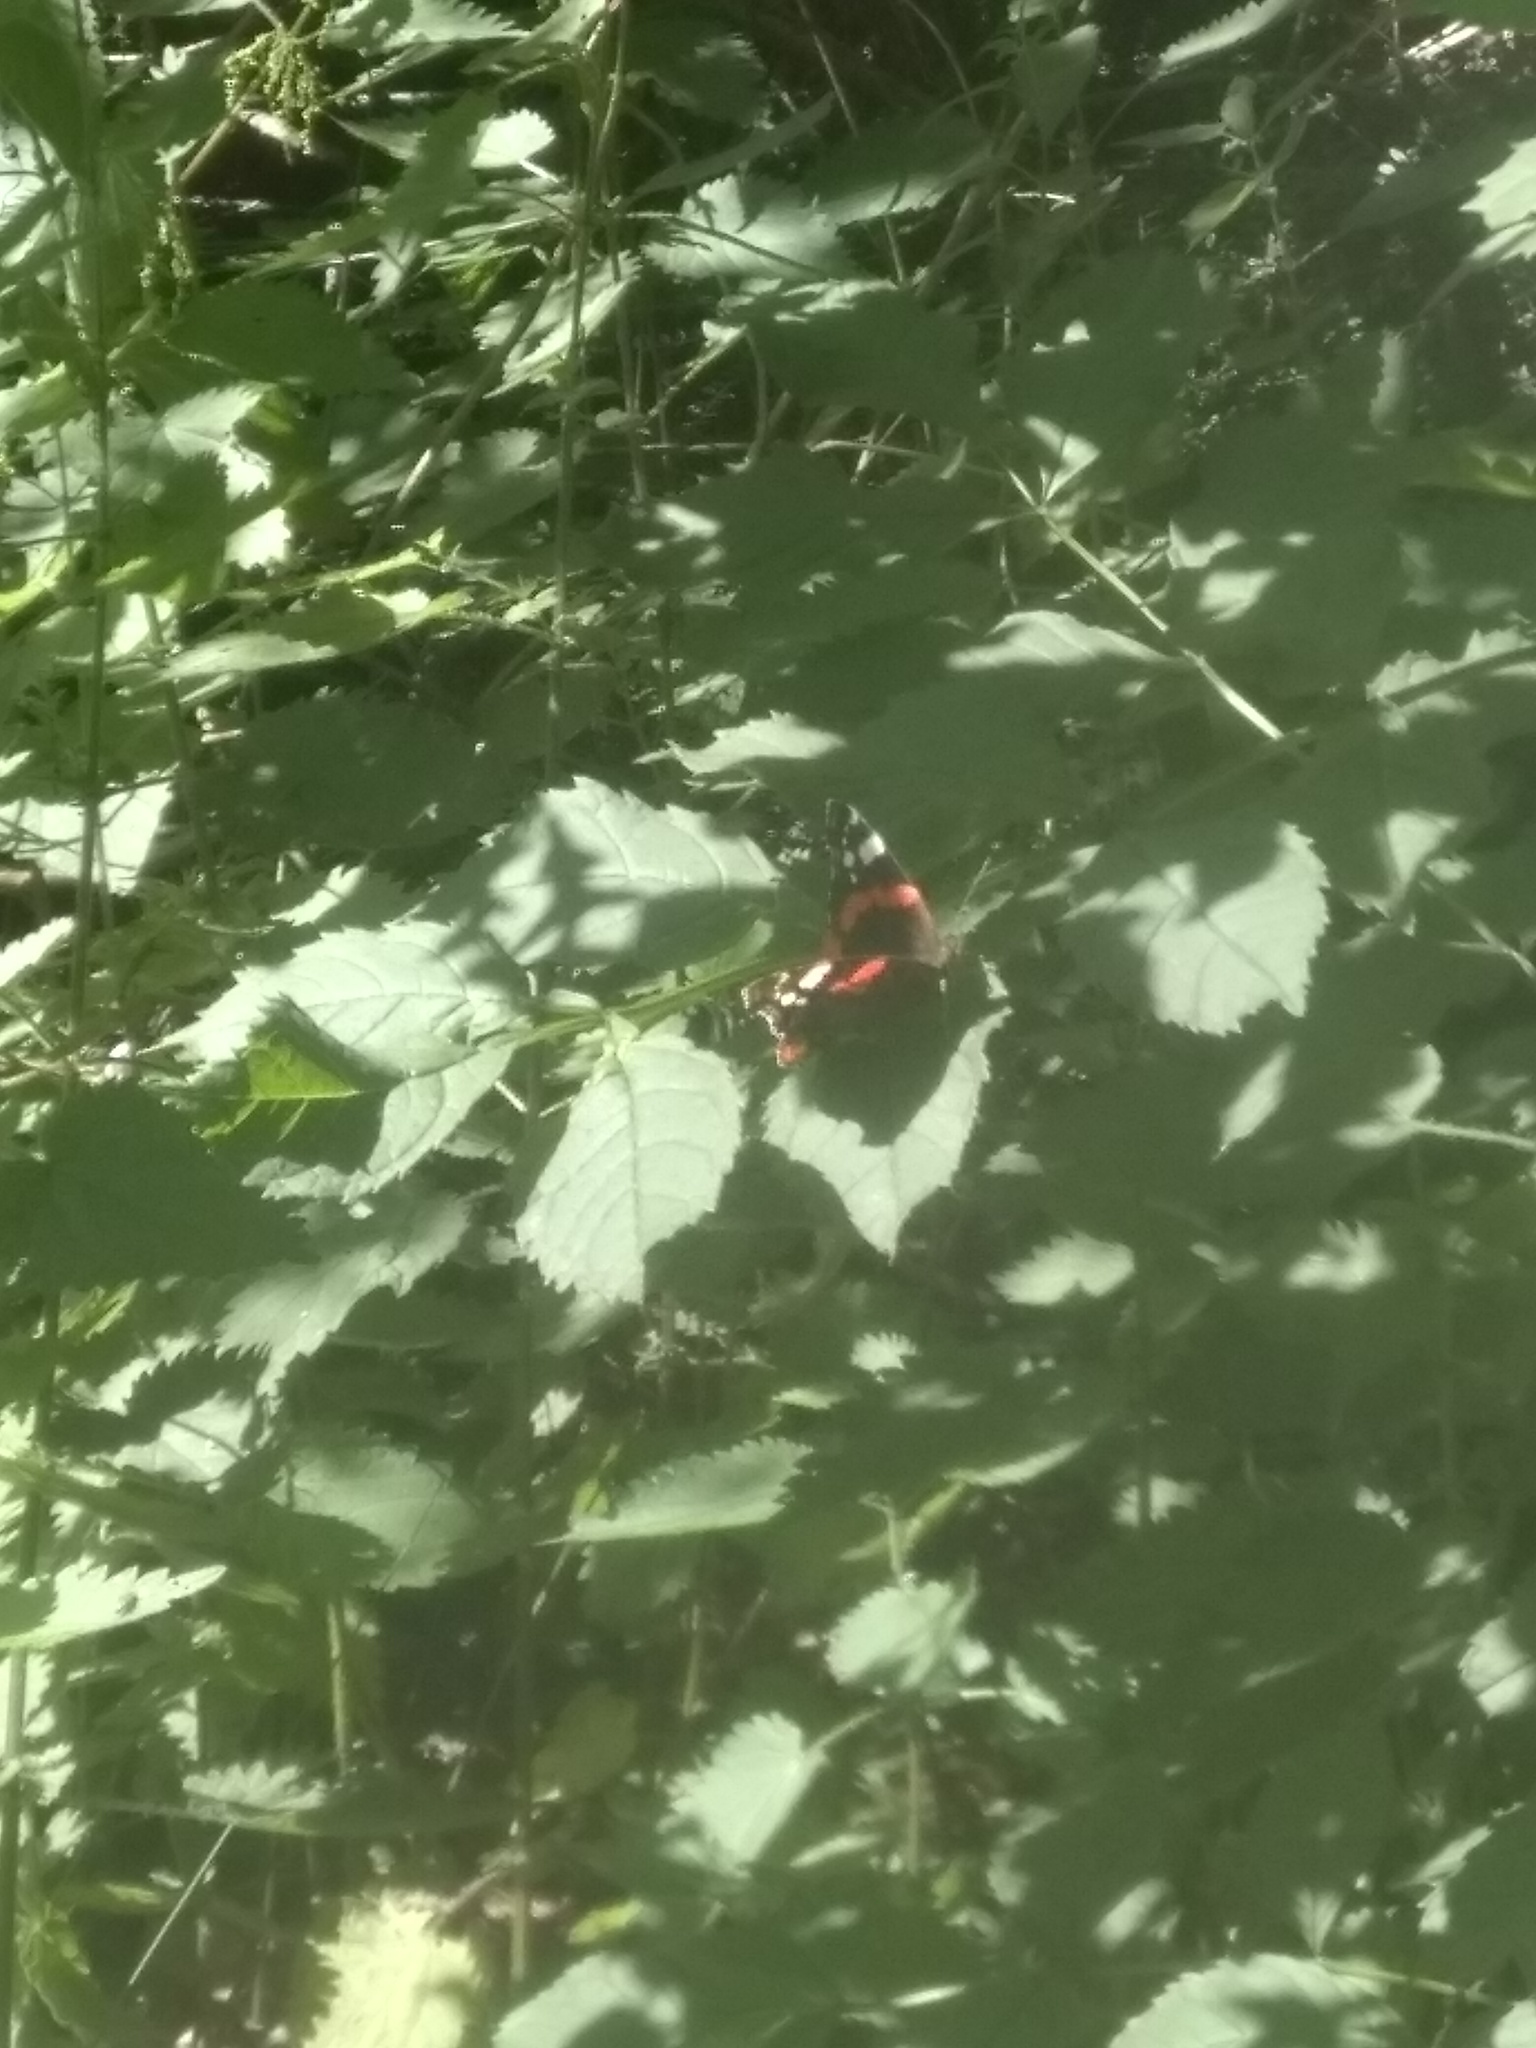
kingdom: Animalia
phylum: Arthropoda
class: Insecta
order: Lepidoptera
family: Nymphalidae
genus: Vanessa
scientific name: Vanessa atalanta
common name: Red admiral
